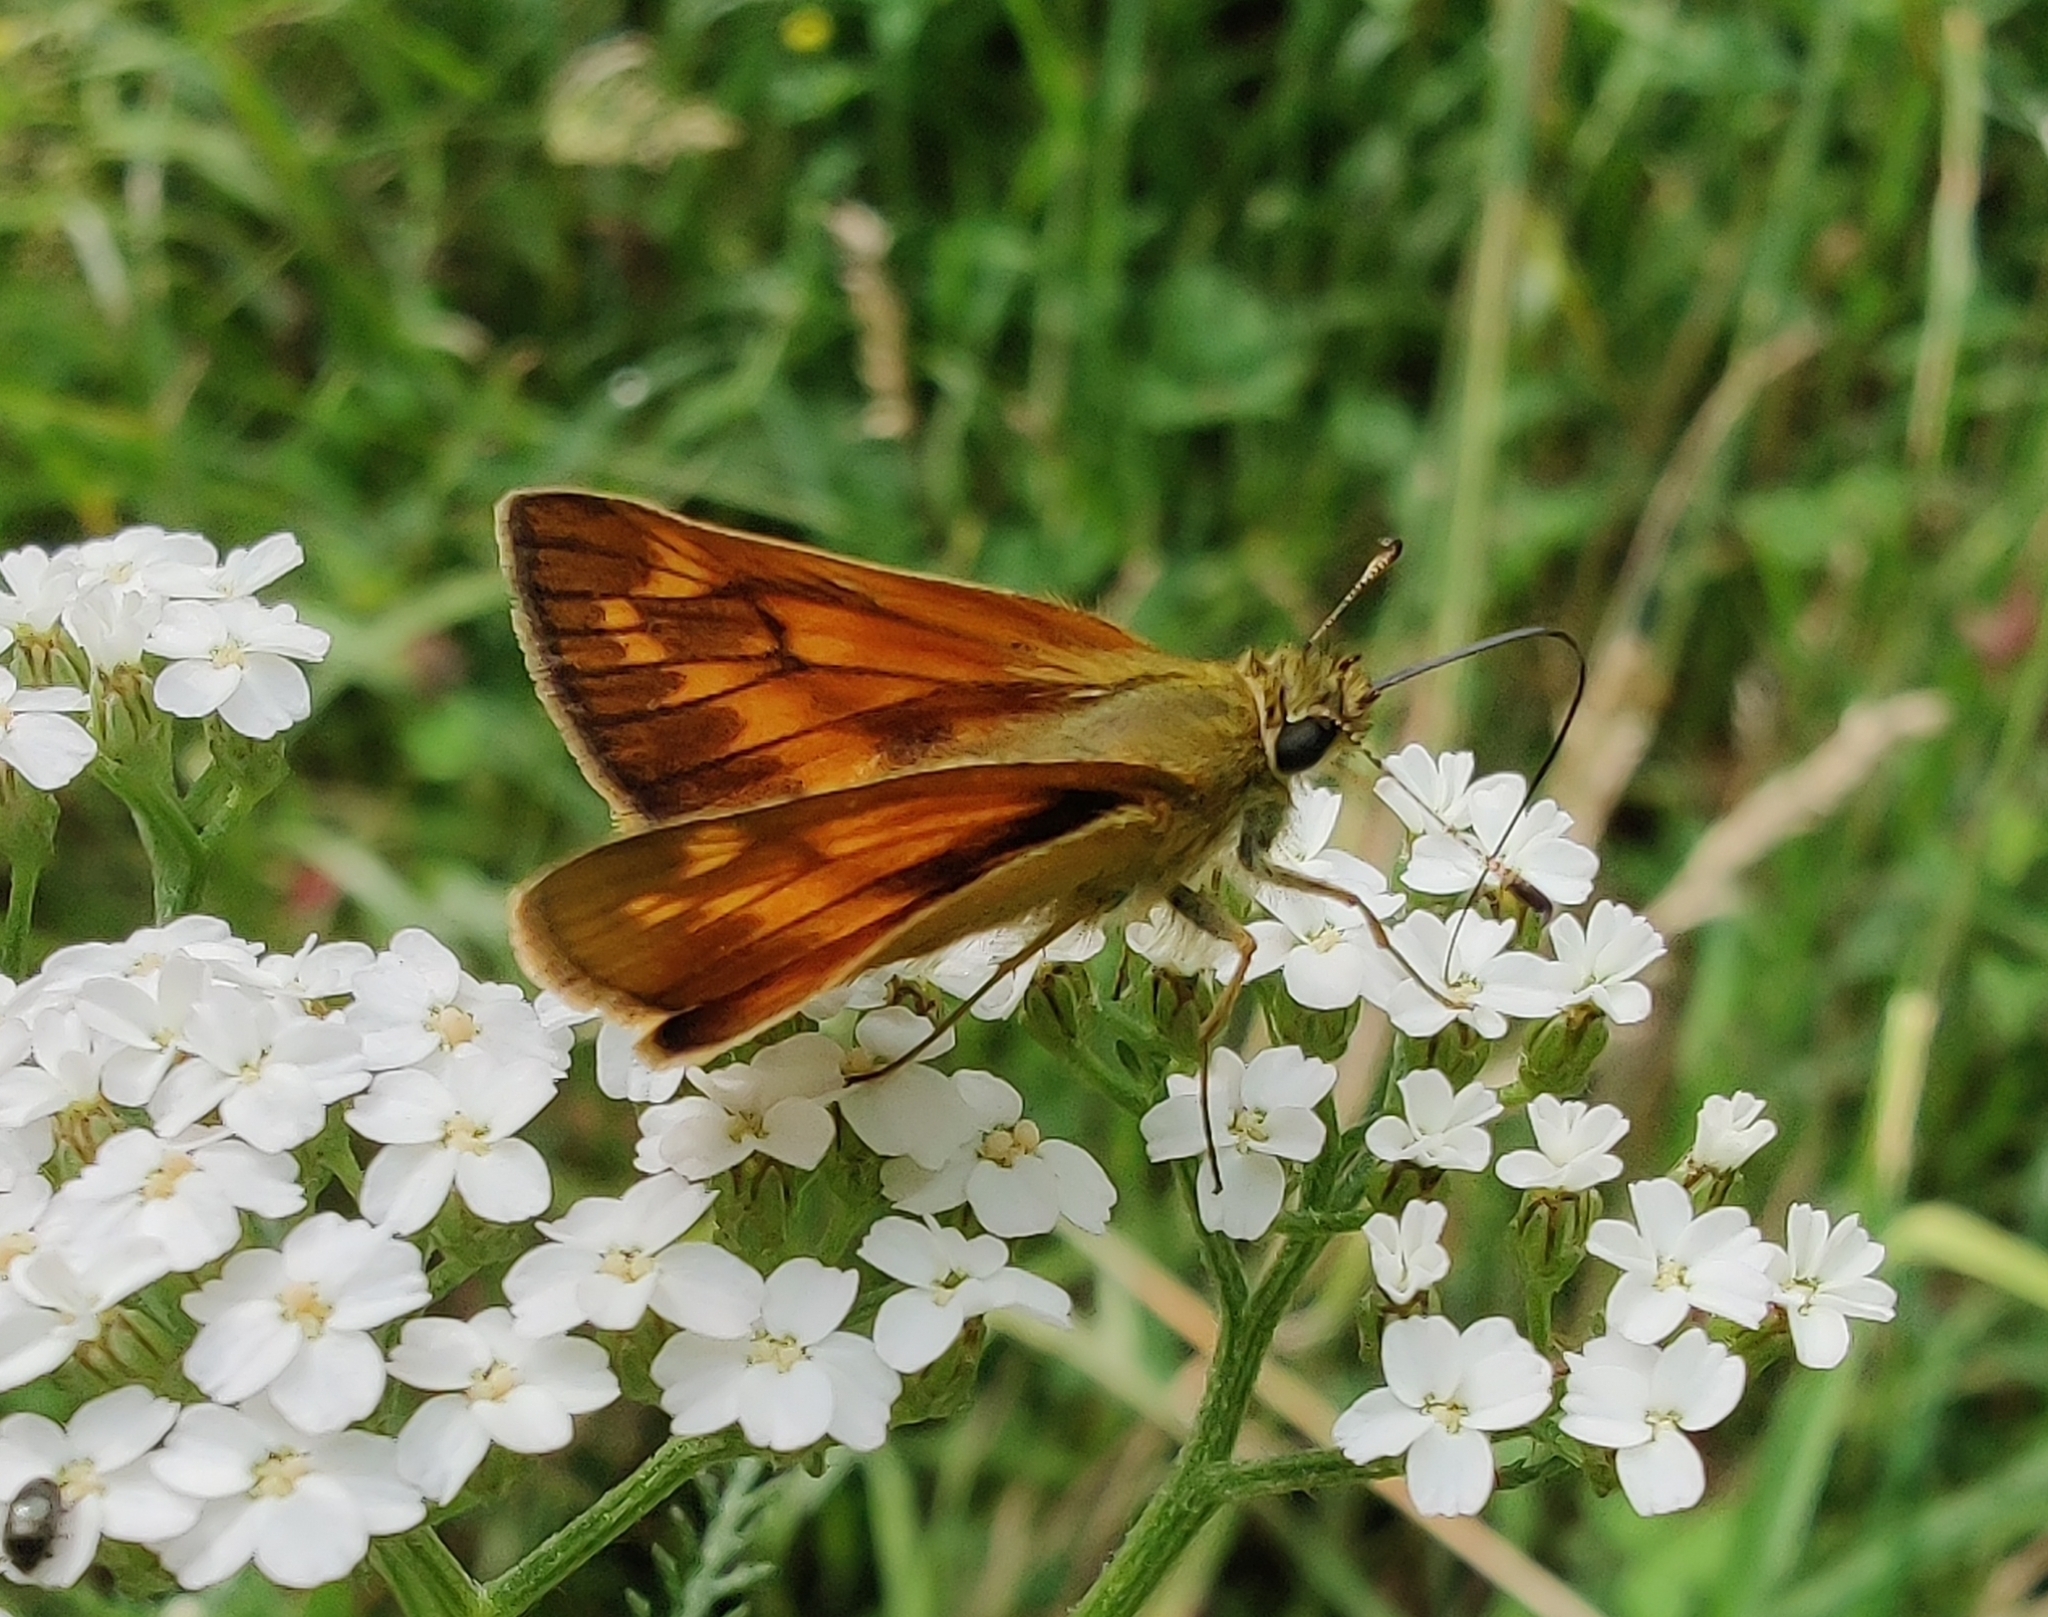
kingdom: Animalia
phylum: Arthropoda
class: Insecta
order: Lepidoptera
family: Hesperiidae
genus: Ochlodes
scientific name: Ochlodes venata
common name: Large skipper
